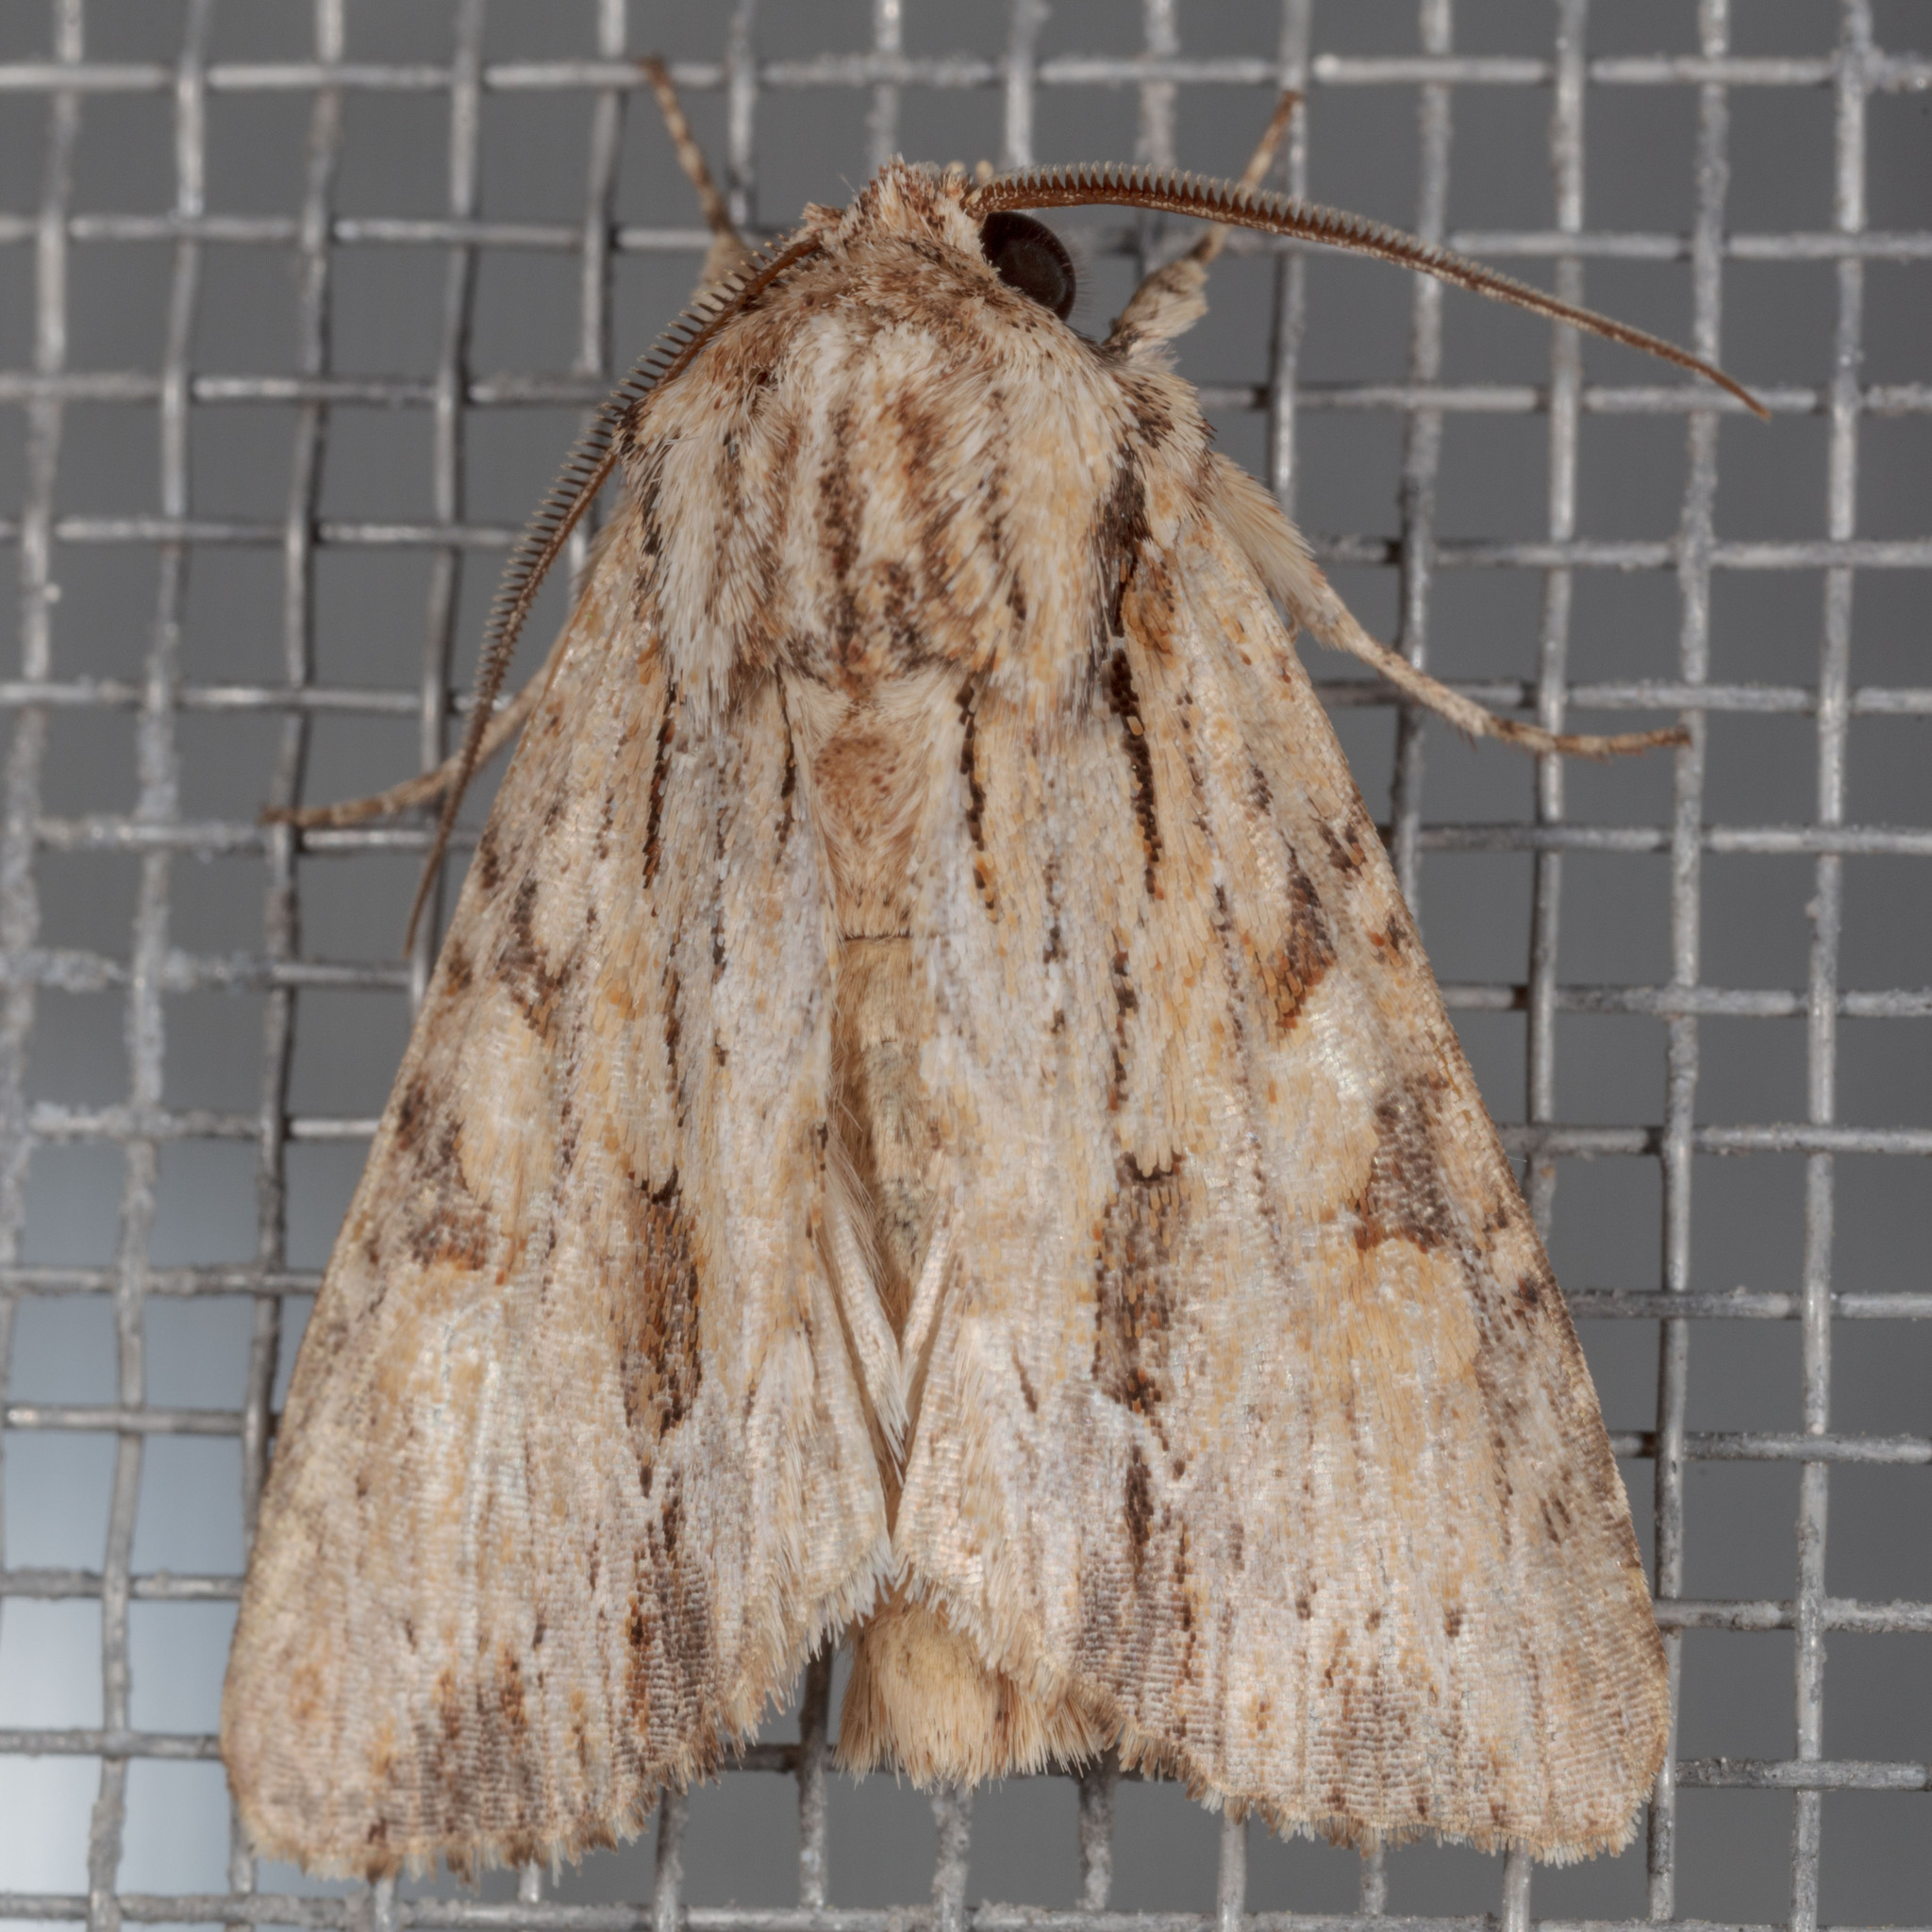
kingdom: Animalia
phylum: Arthropoda
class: Insecta
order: Lepidoptera
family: Noctuidae
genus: Achatia
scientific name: Achatia mucens
